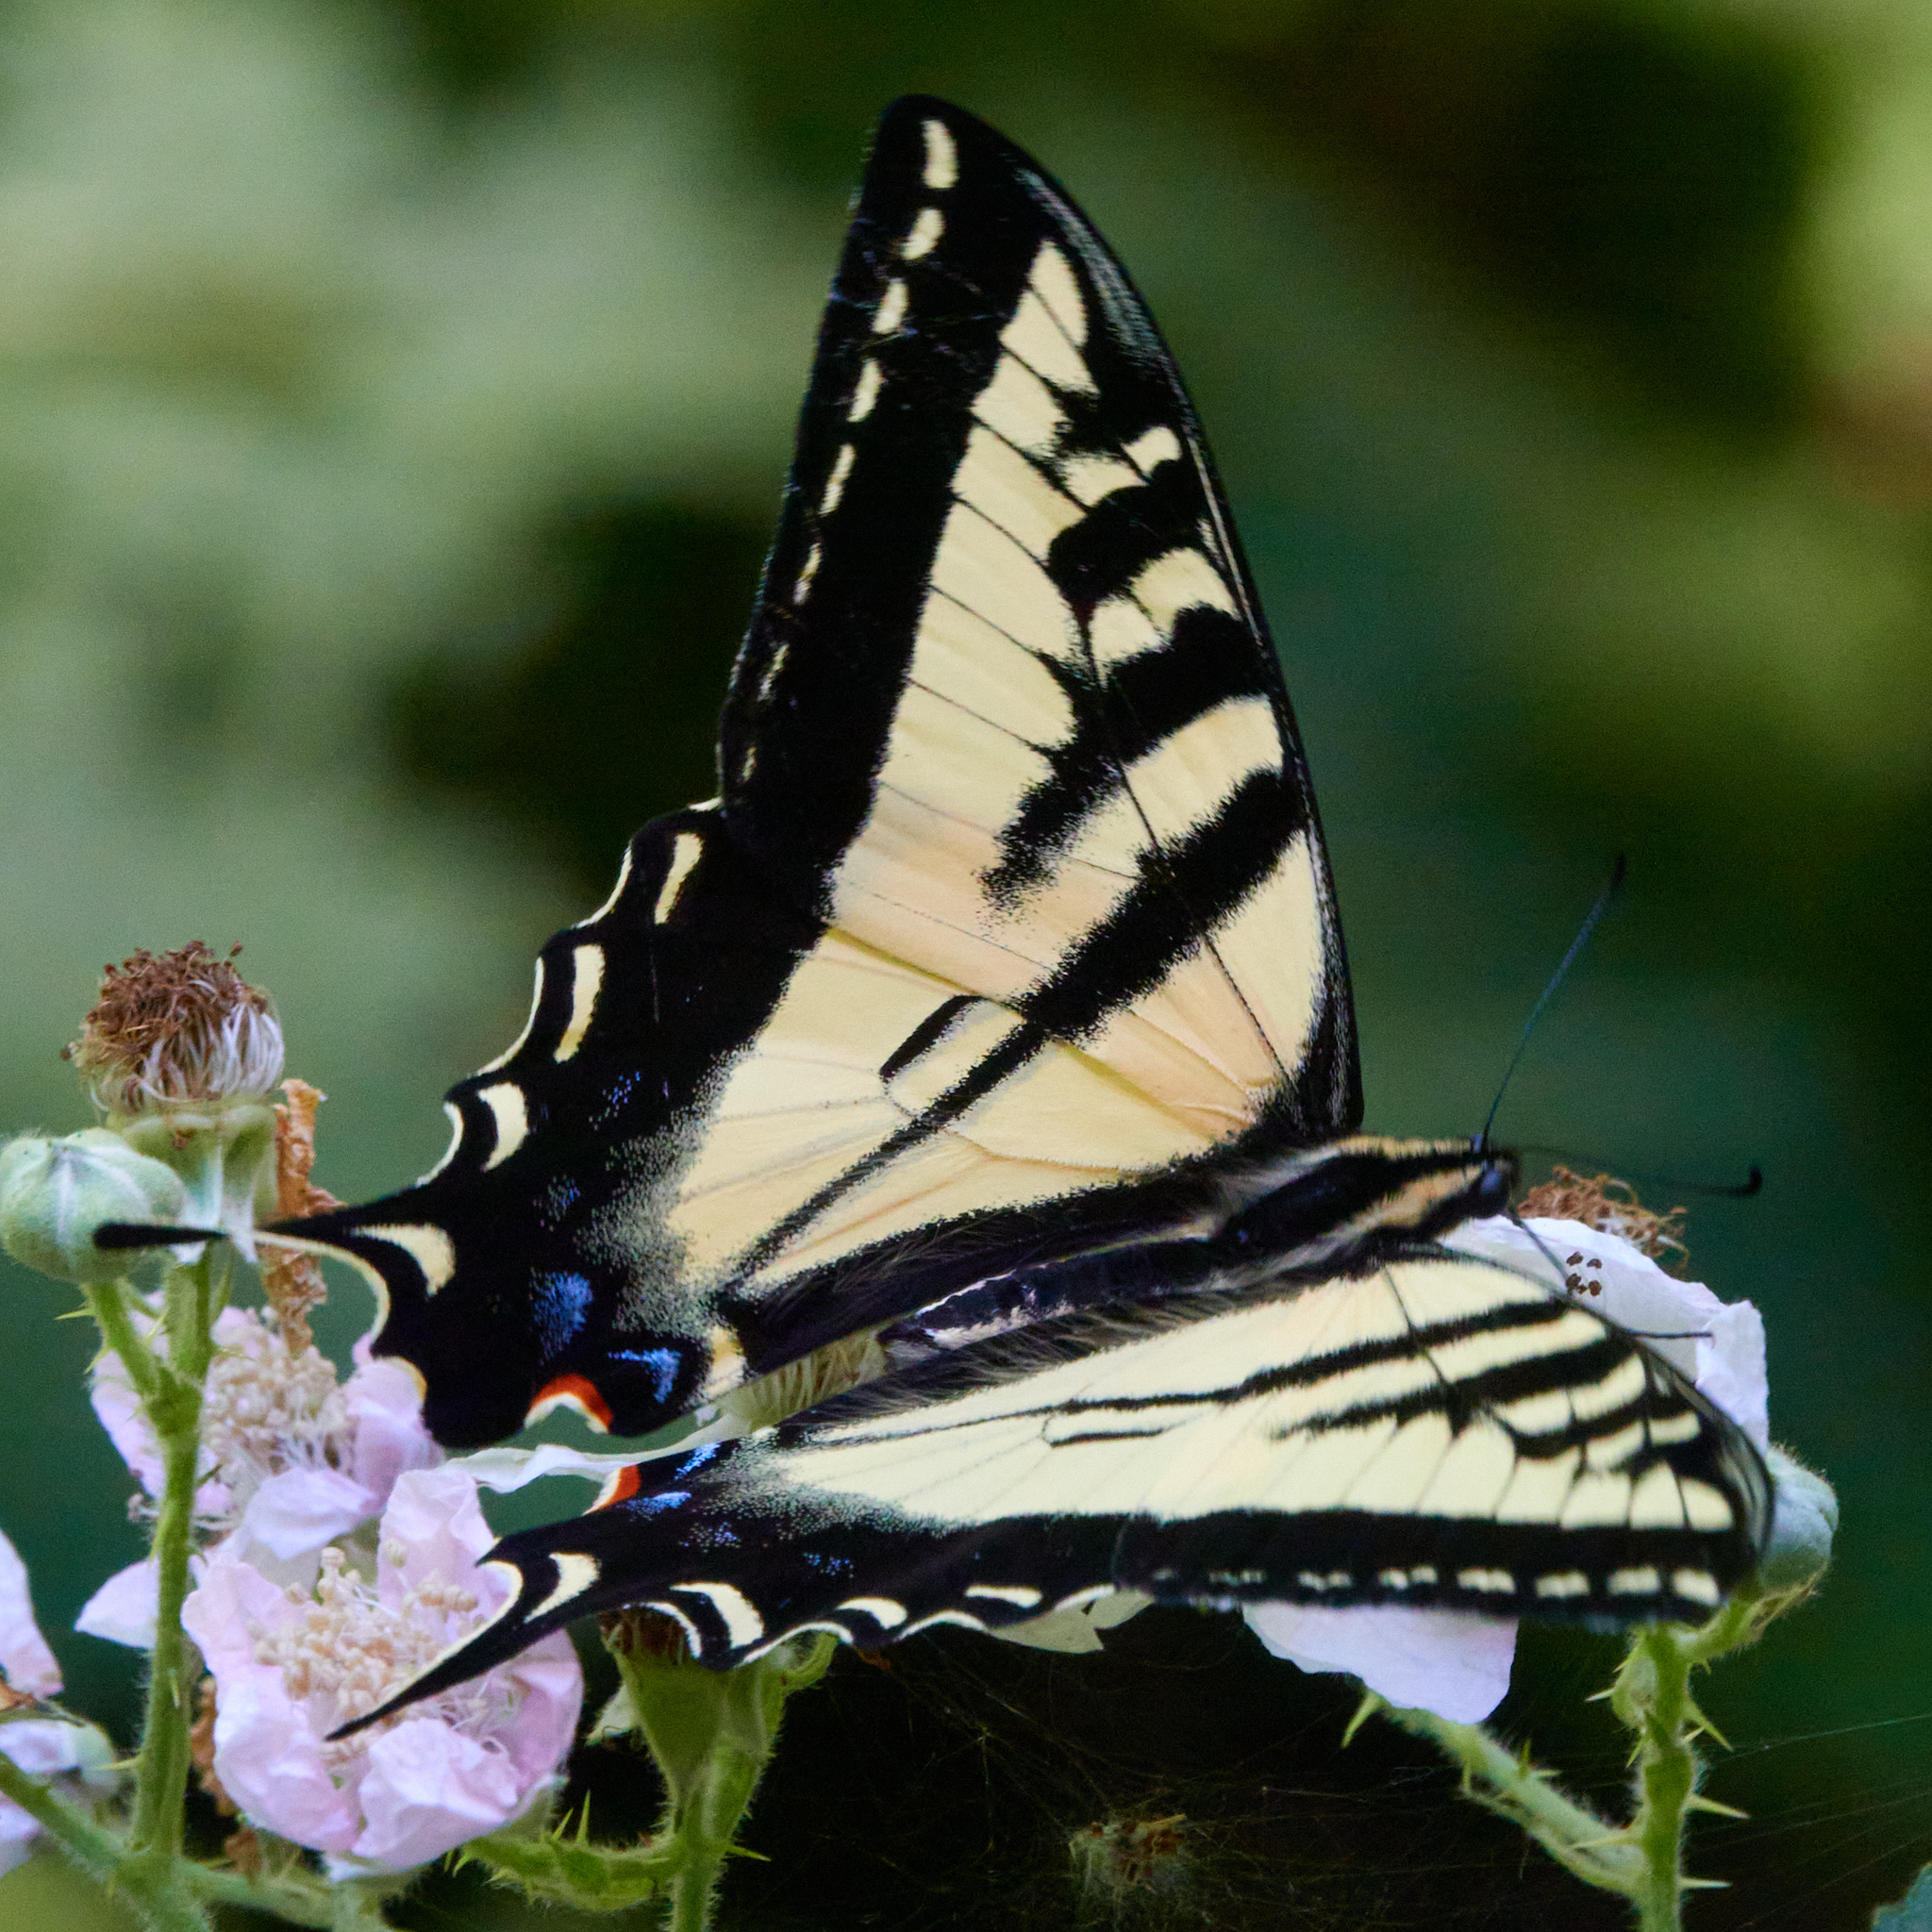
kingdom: Animalia
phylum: Arthropoda
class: Insecta
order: Lepidoptera
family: Papilionidae
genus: Papilio
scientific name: Papilio rutulus
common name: Western tiger swallowtail
